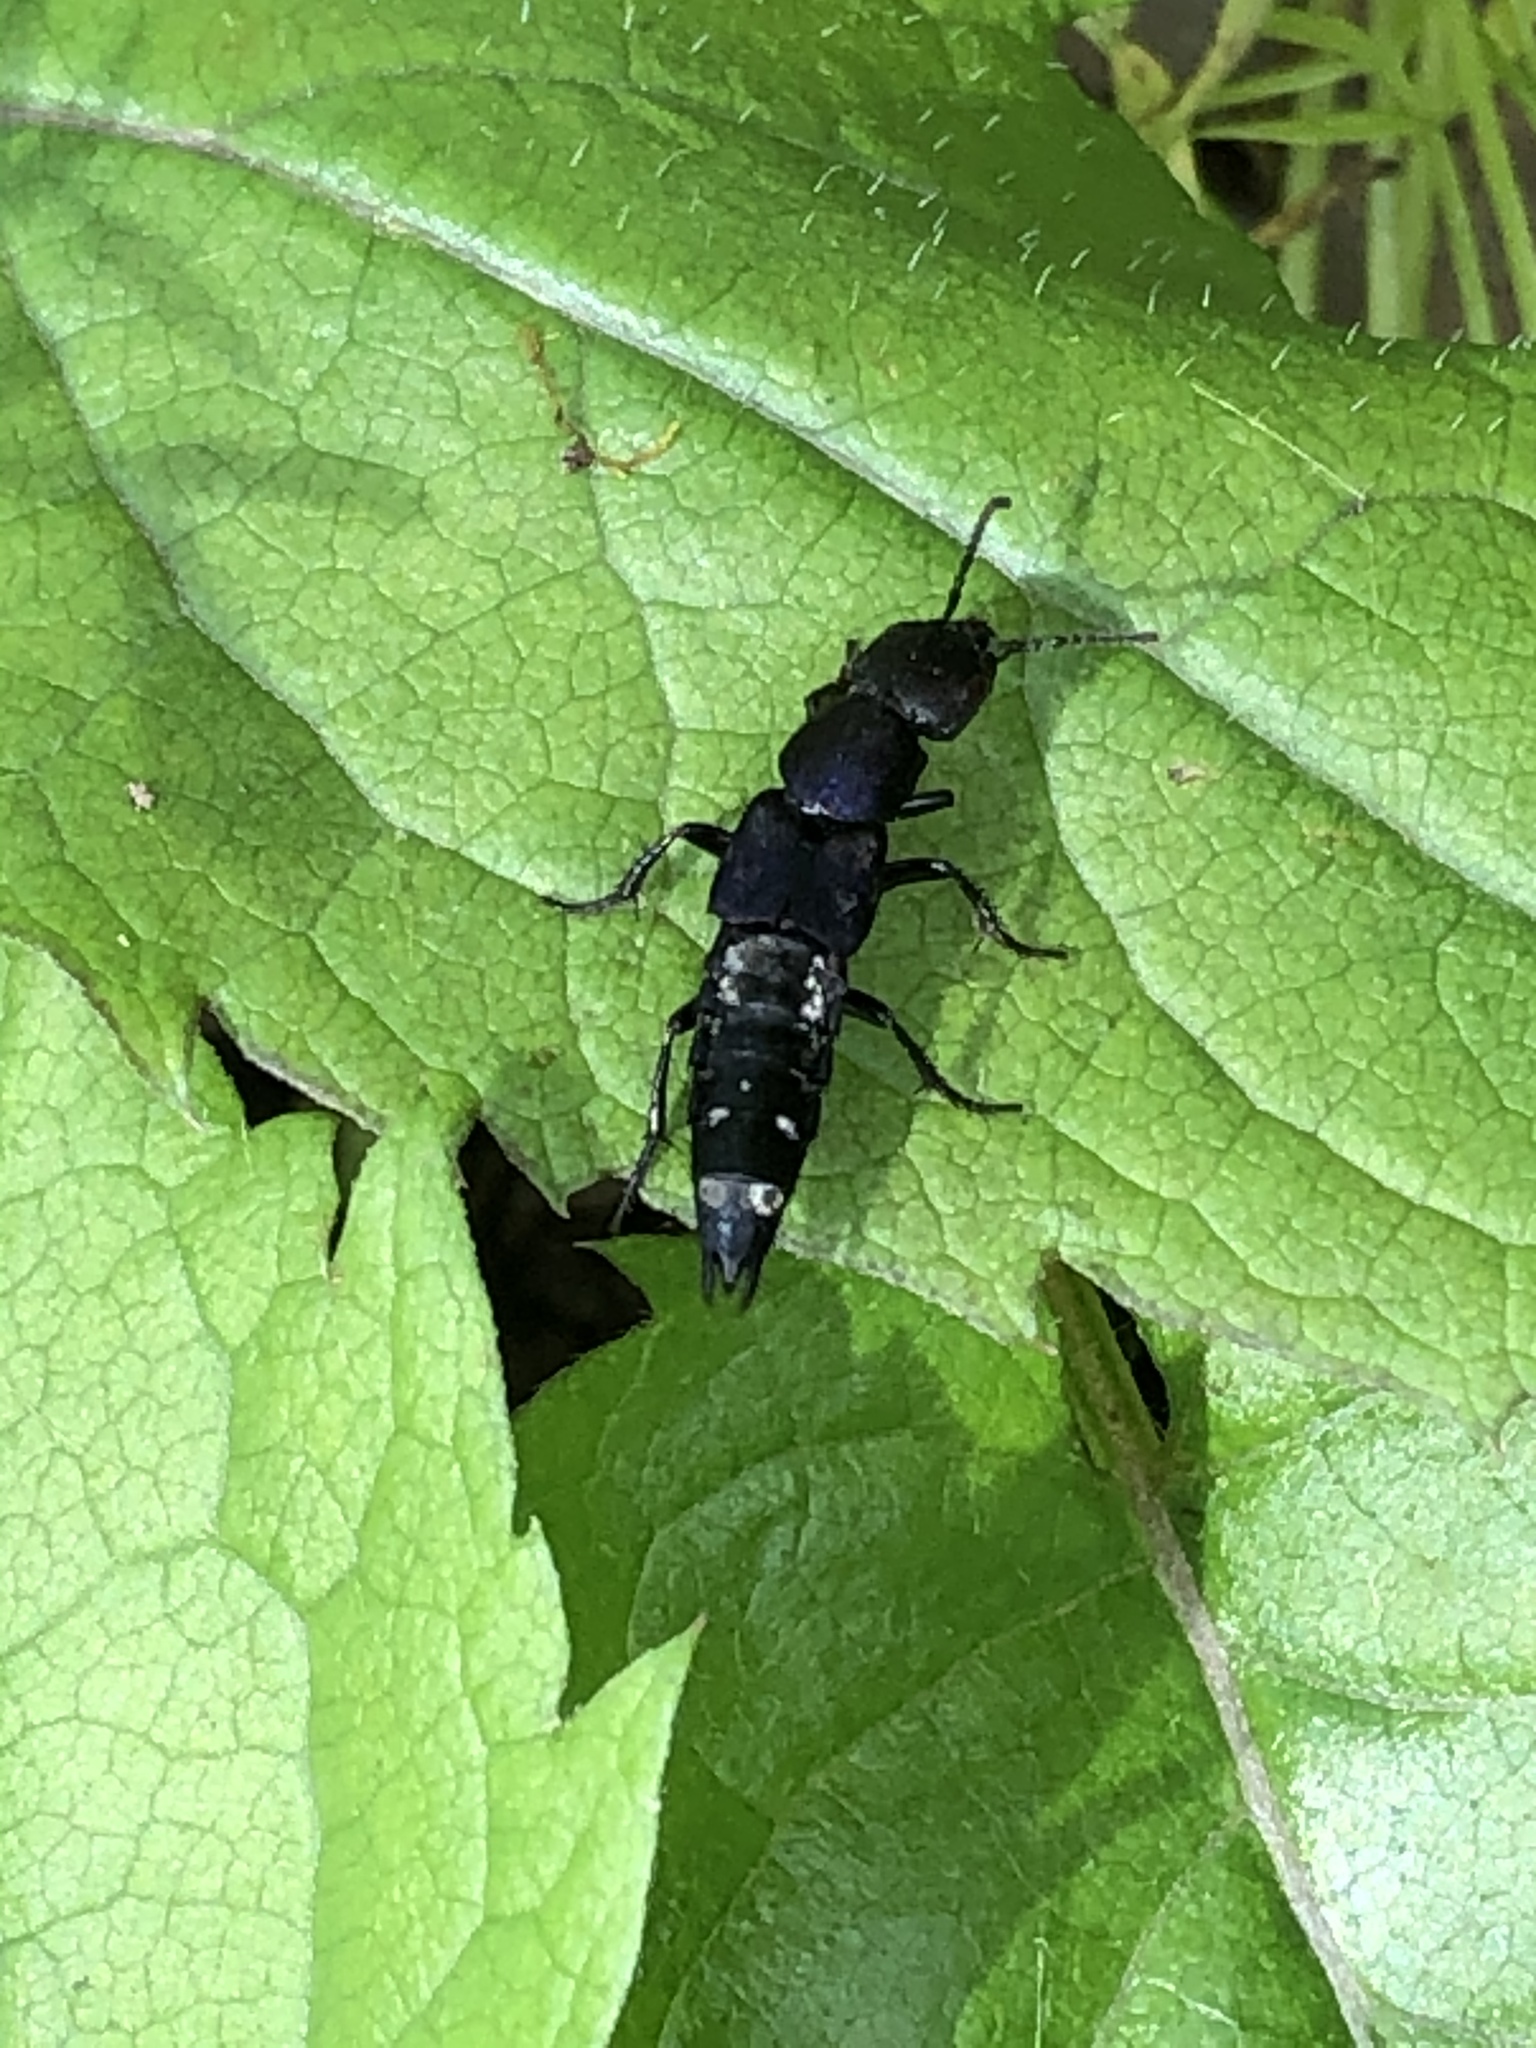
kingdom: Animalia
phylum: Arthropoda
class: Insecta
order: Coleoptera
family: Staphylinidae
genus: Platydracus
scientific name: Platydracus violaceus
